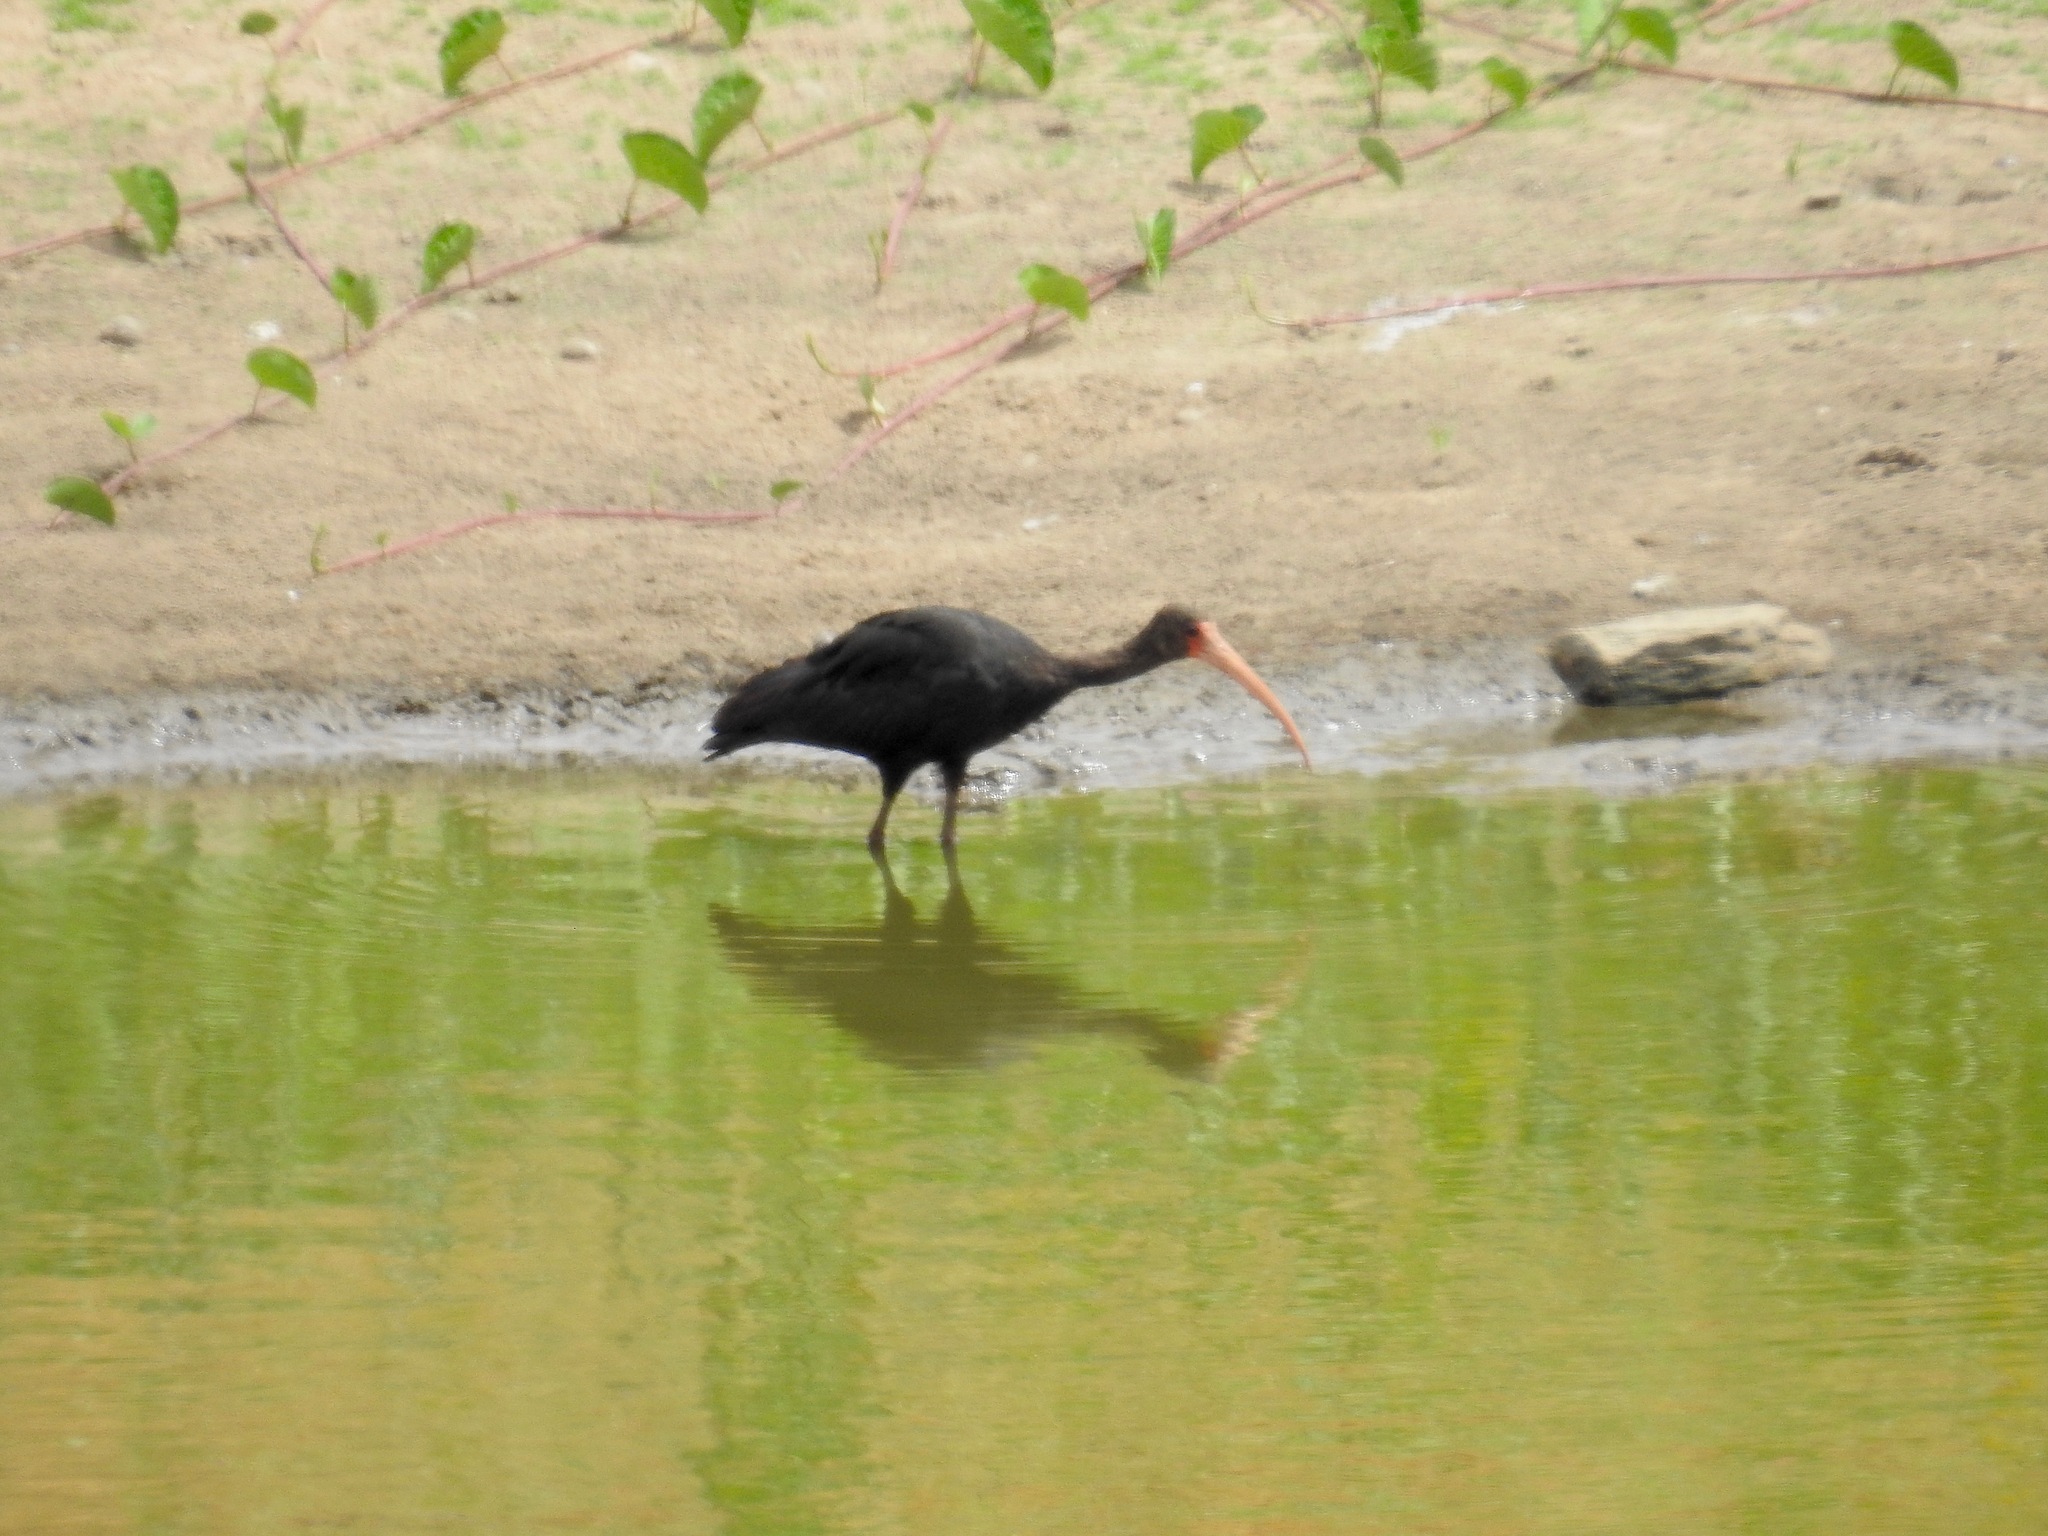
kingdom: Animalia
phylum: Chordata
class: Aves
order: Pelecaniformes
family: Threskiornithidae
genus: Phimosus
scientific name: Phimosus infuscatus
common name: Bare-faced ibis
